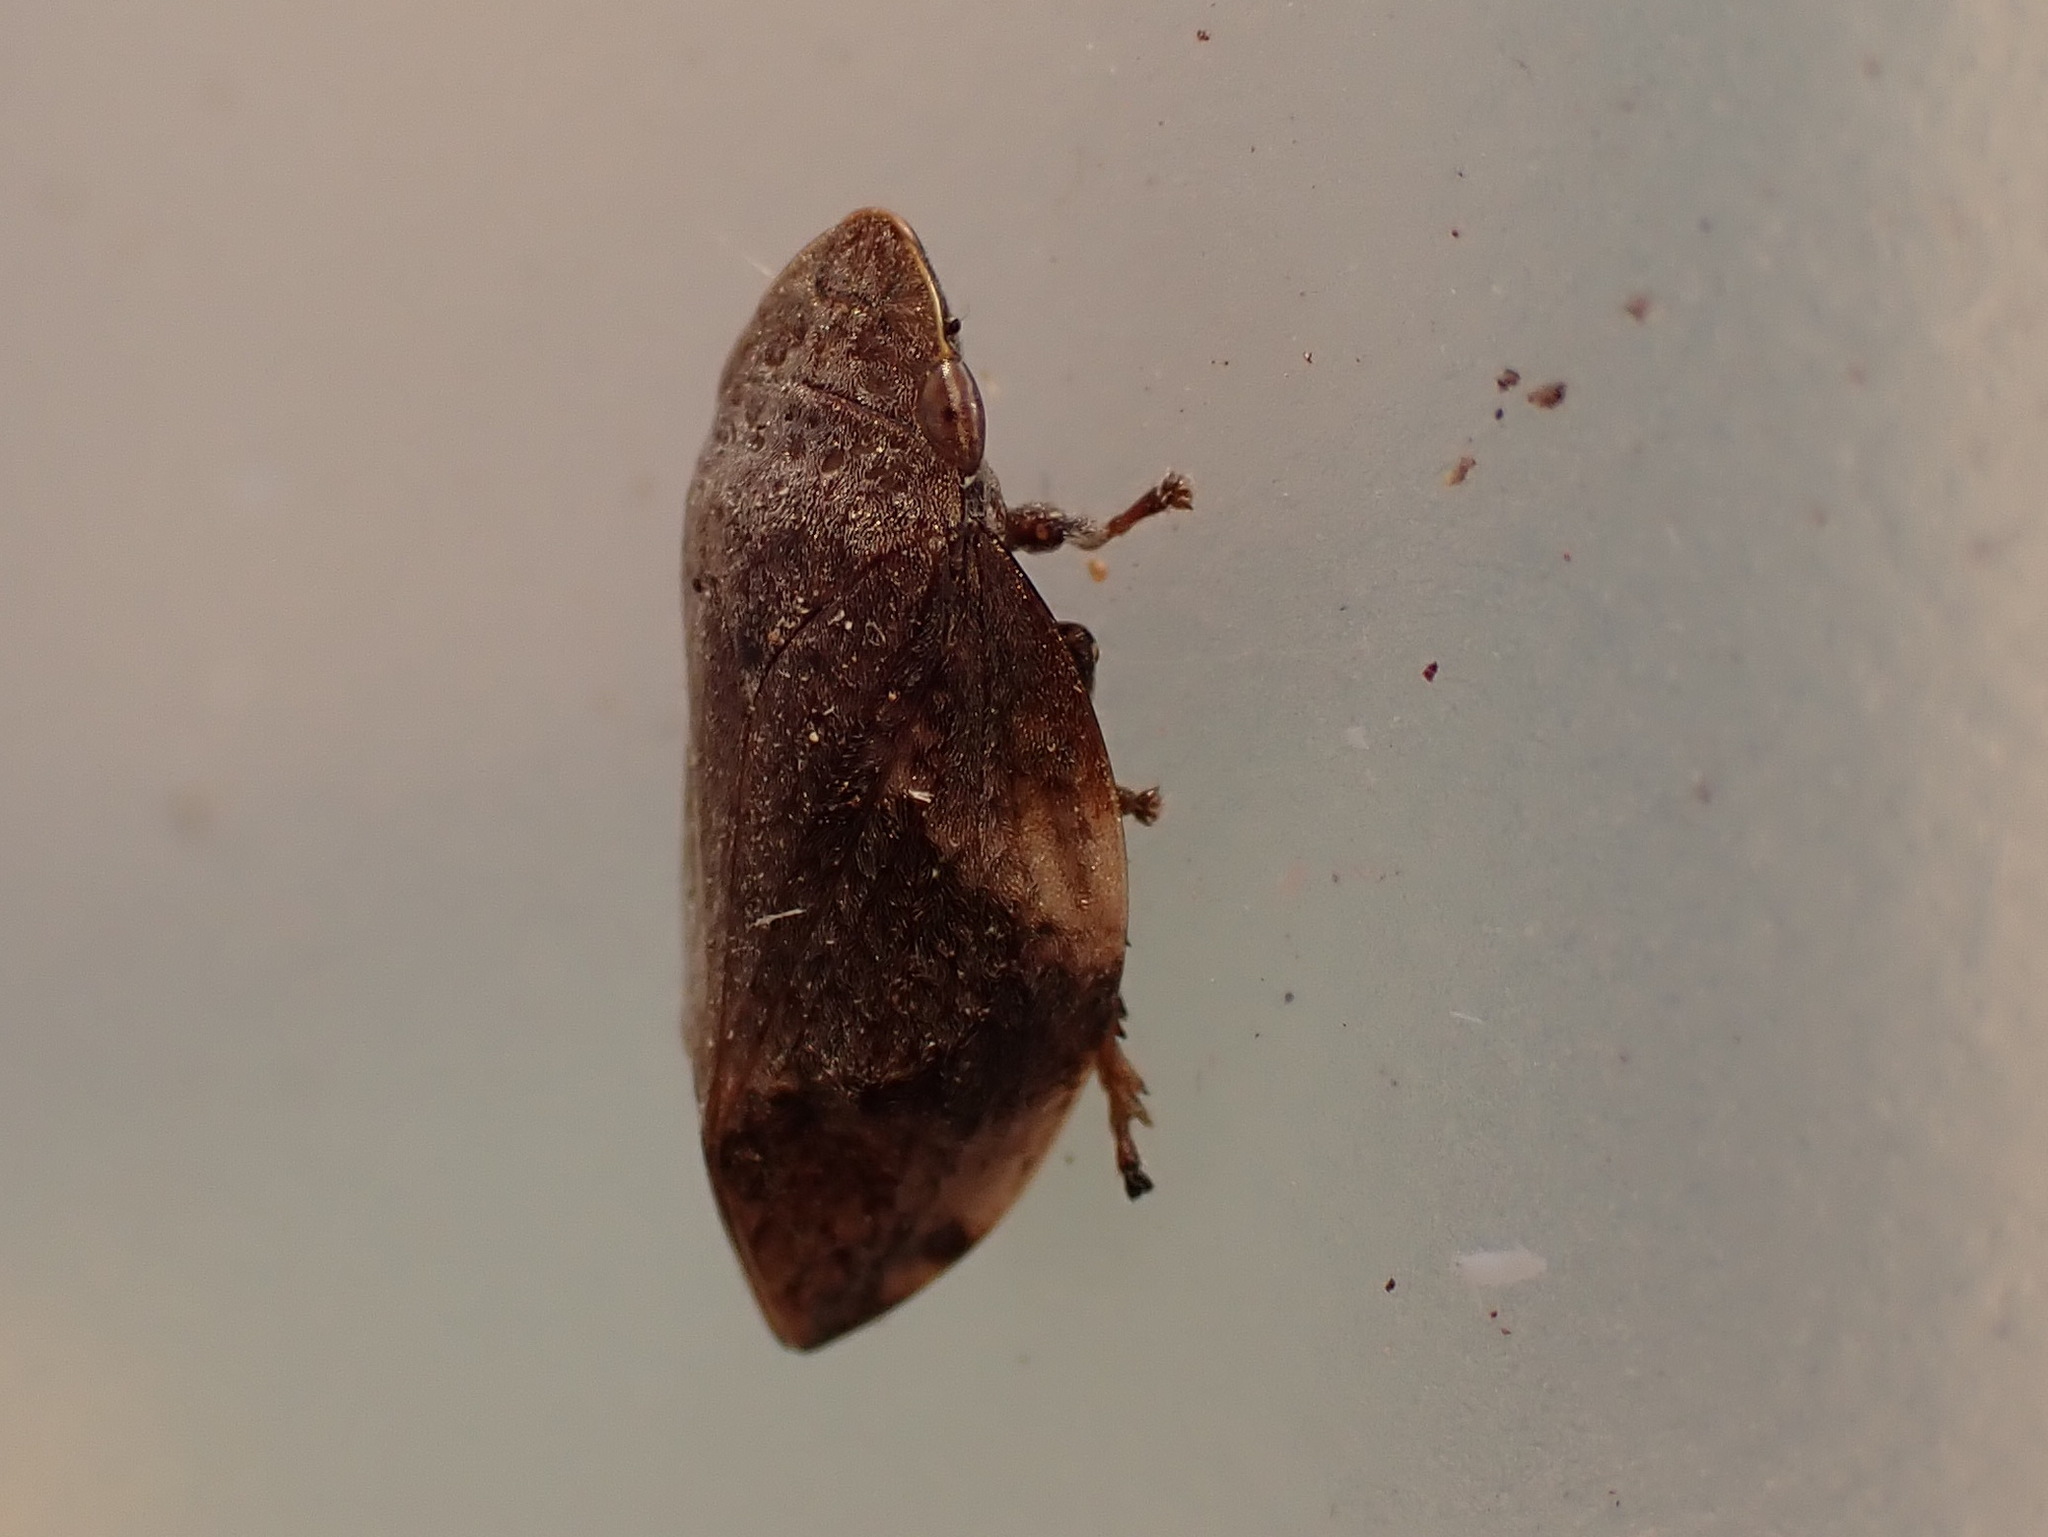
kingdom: Animalia
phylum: Arthropoda
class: Insecta
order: Hemiptera
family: Aphrophoridae
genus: Lepyronia
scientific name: Lepyronia quadrangularis
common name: Diamond-backed spittlebug
